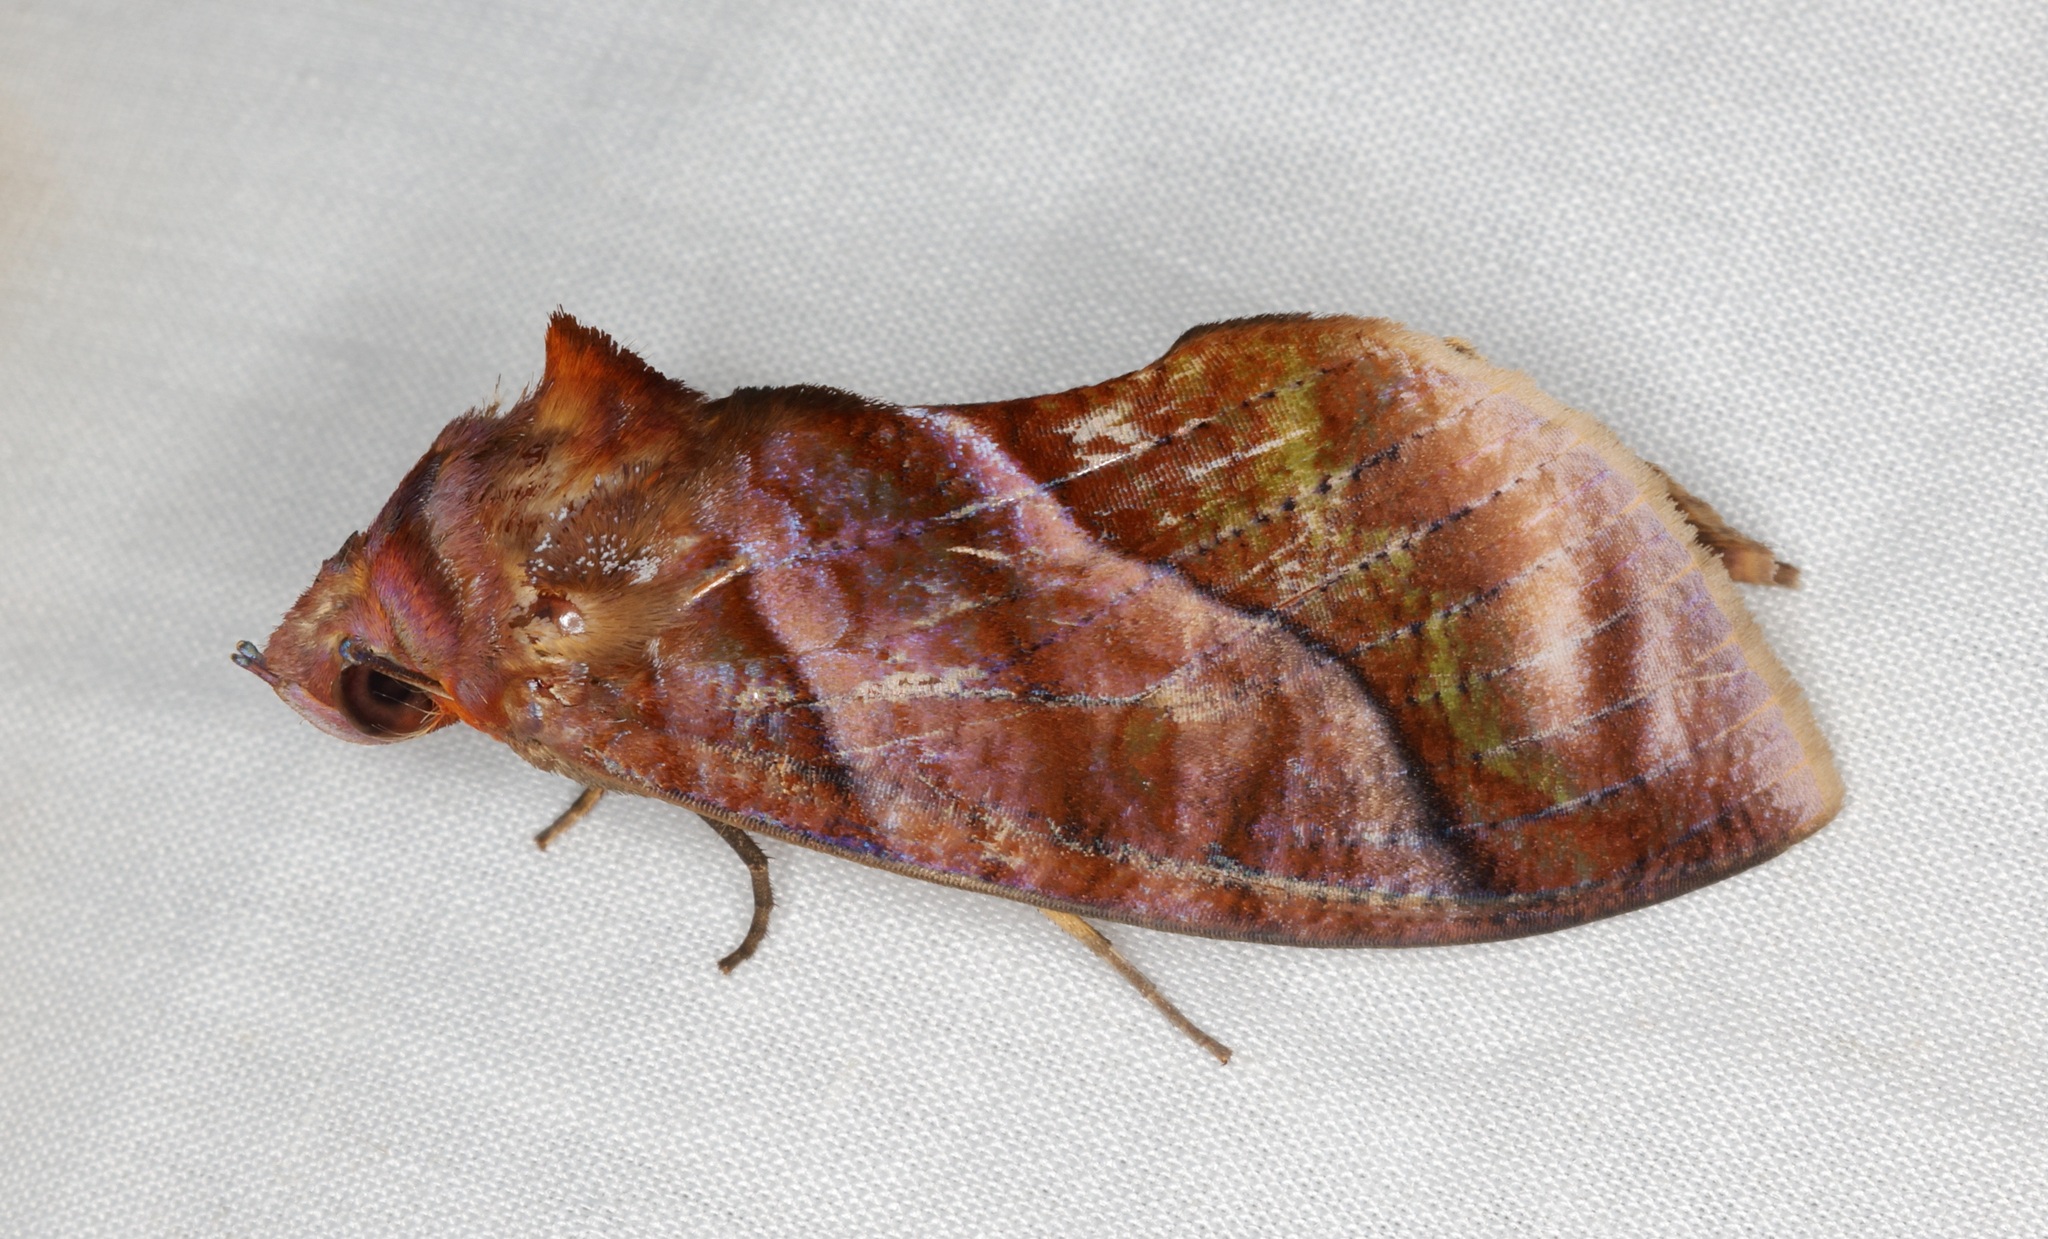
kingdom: Animalia
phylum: Arthropoda
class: Insecta
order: Lepidoptera
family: Erebidae
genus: Eudocima
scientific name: Eudocima homaena
